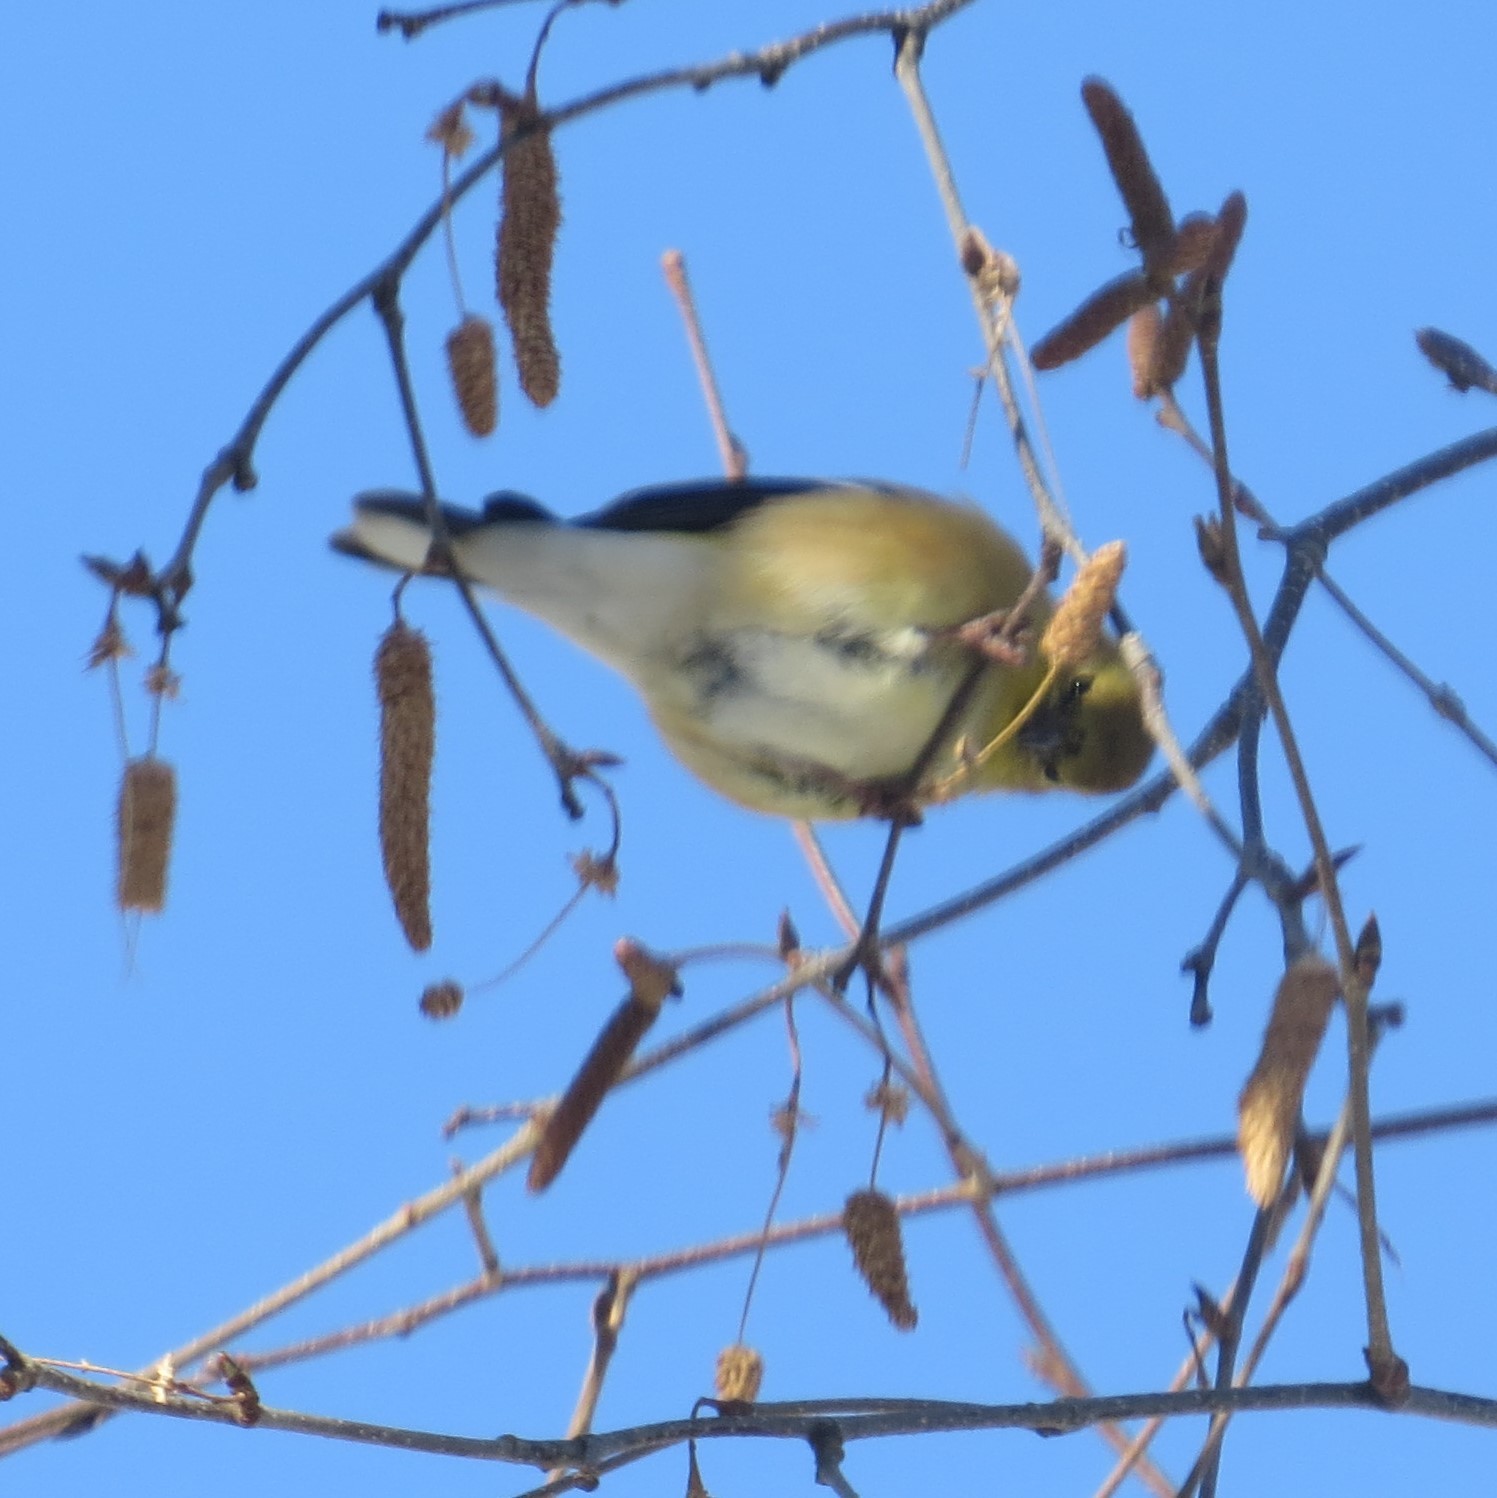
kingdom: Animalia
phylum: Chordata
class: Aves
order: Passeriformes
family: Fringillidae
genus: Spinus
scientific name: Spinus tristis
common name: American goldfinch
